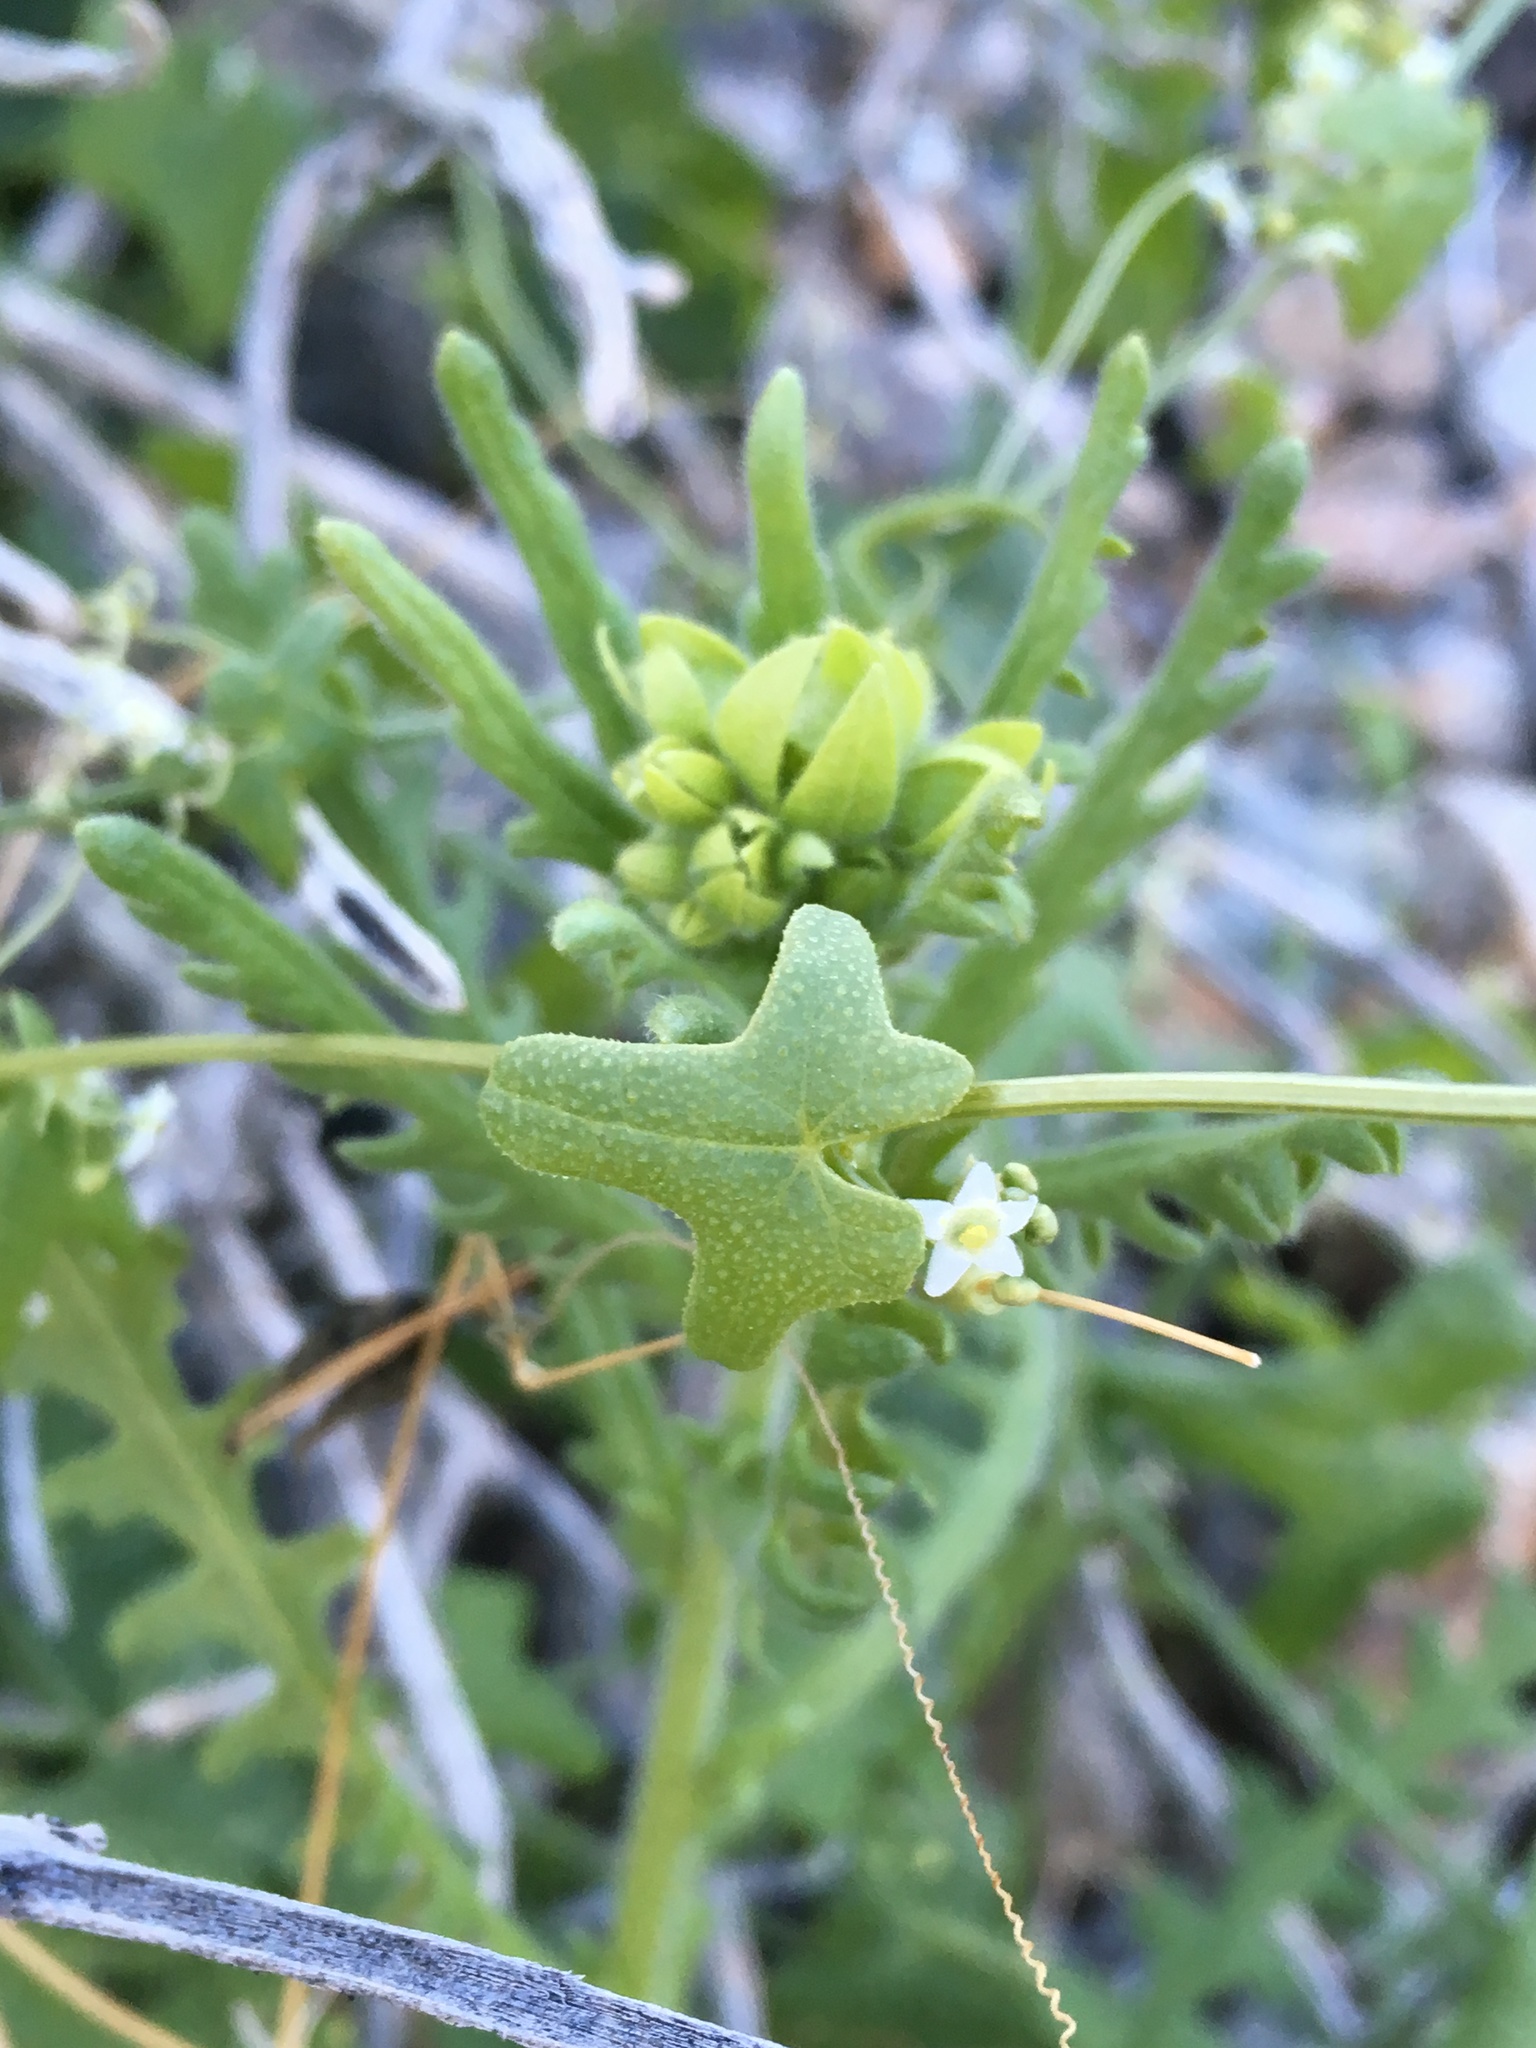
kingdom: Plantae
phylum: Tracheophyta
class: Magnoliopsida
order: Cucurbitales
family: Cucurbitaceae
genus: Echinopepon
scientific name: Echinopepon bigelovii
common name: Desert starvine
